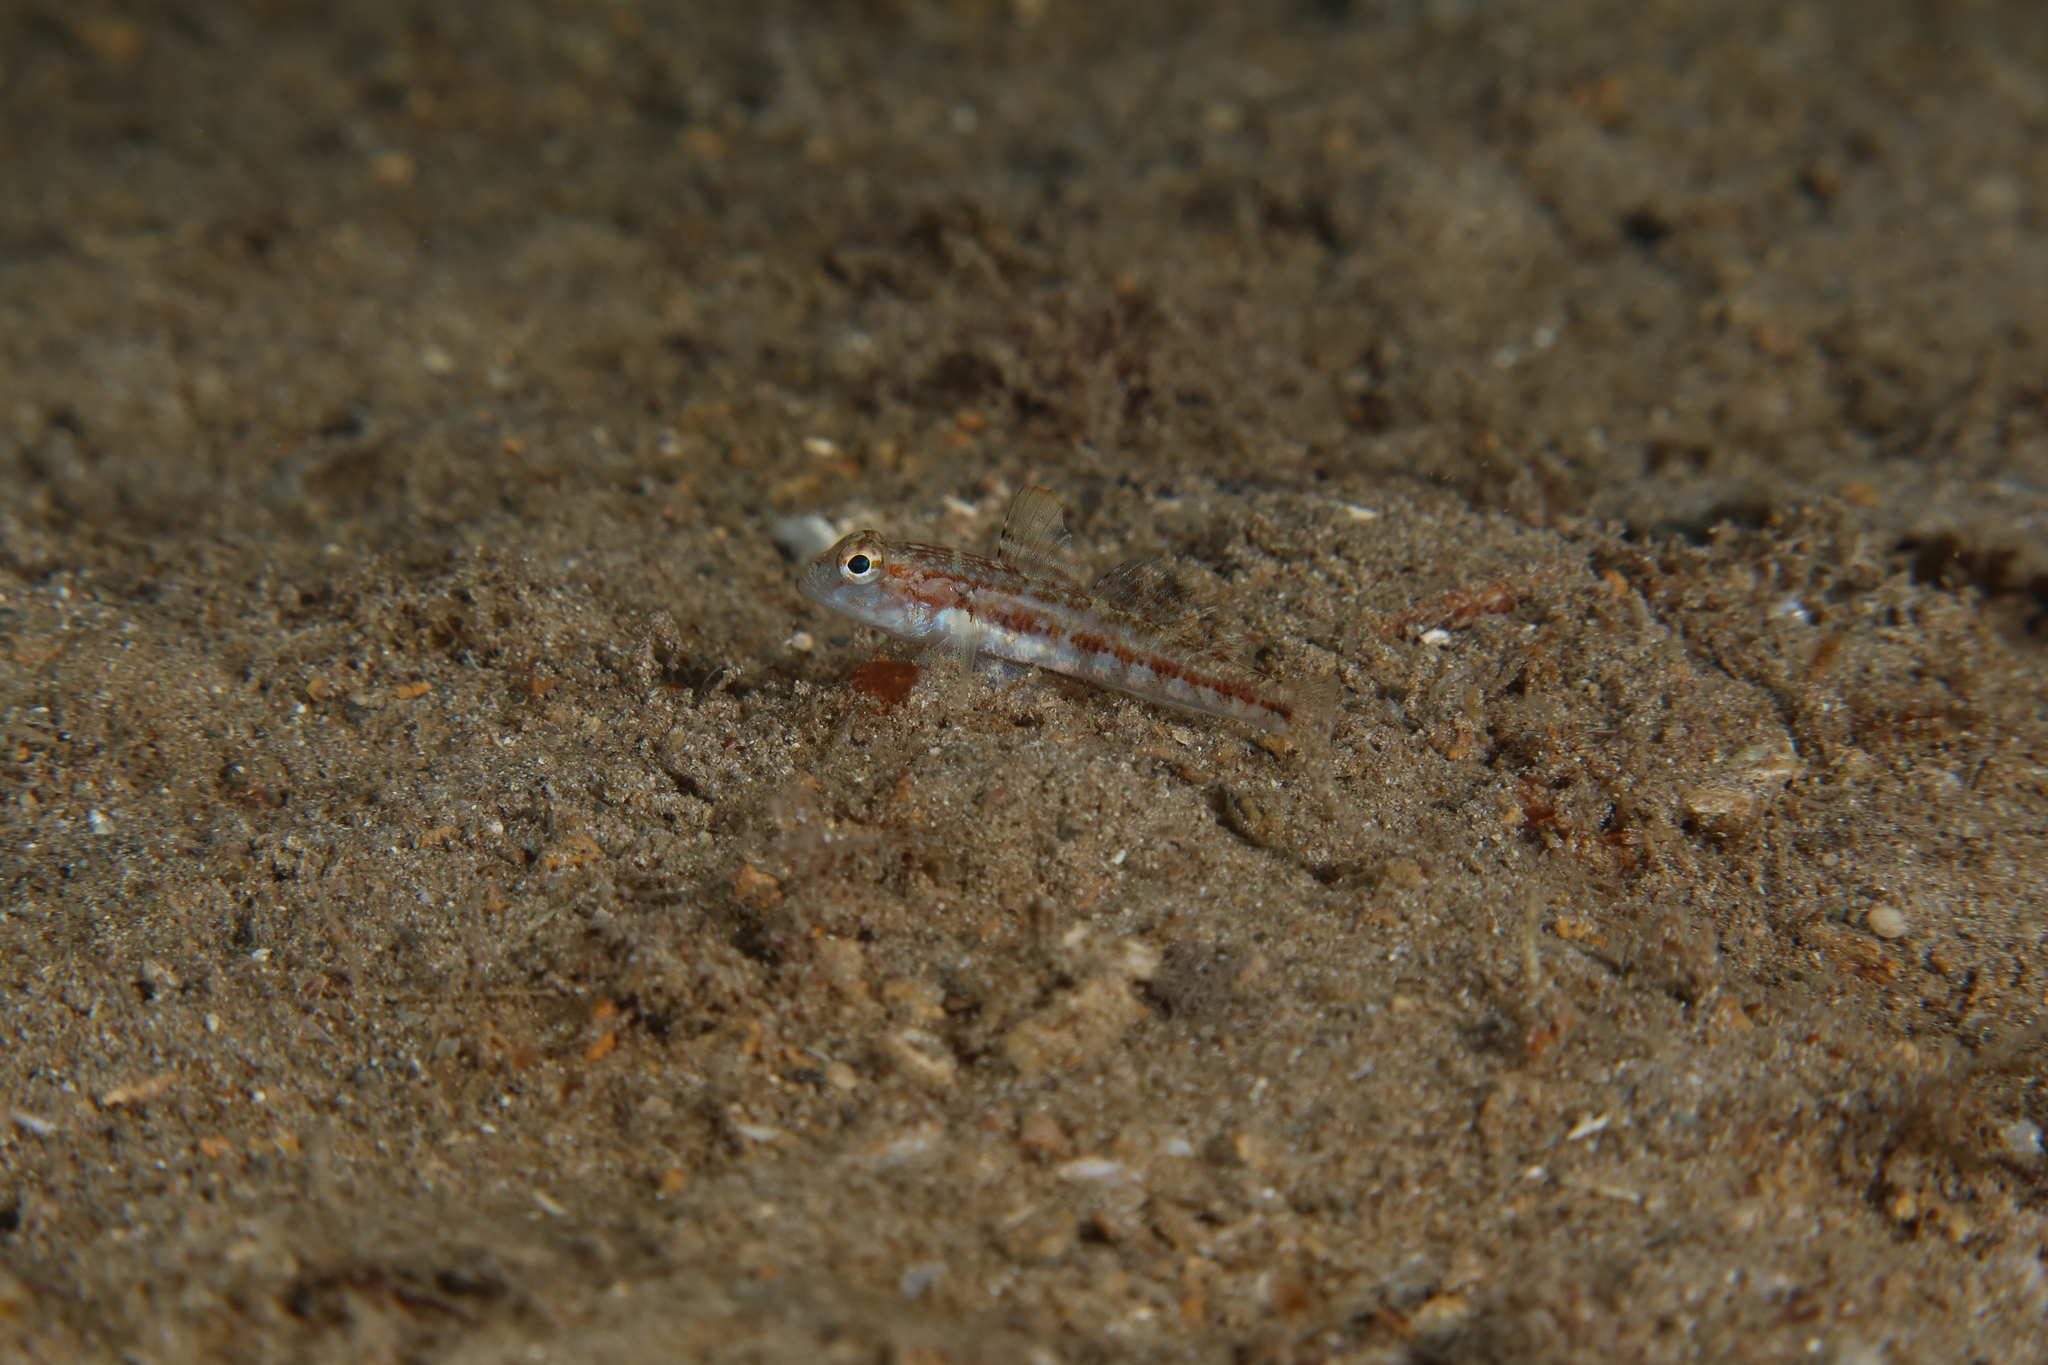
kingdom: Animalia
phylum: Chordata
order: Perciformes
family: Gobiidae
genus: Gobius
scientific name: Gobius roulei
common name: Roule's goby
